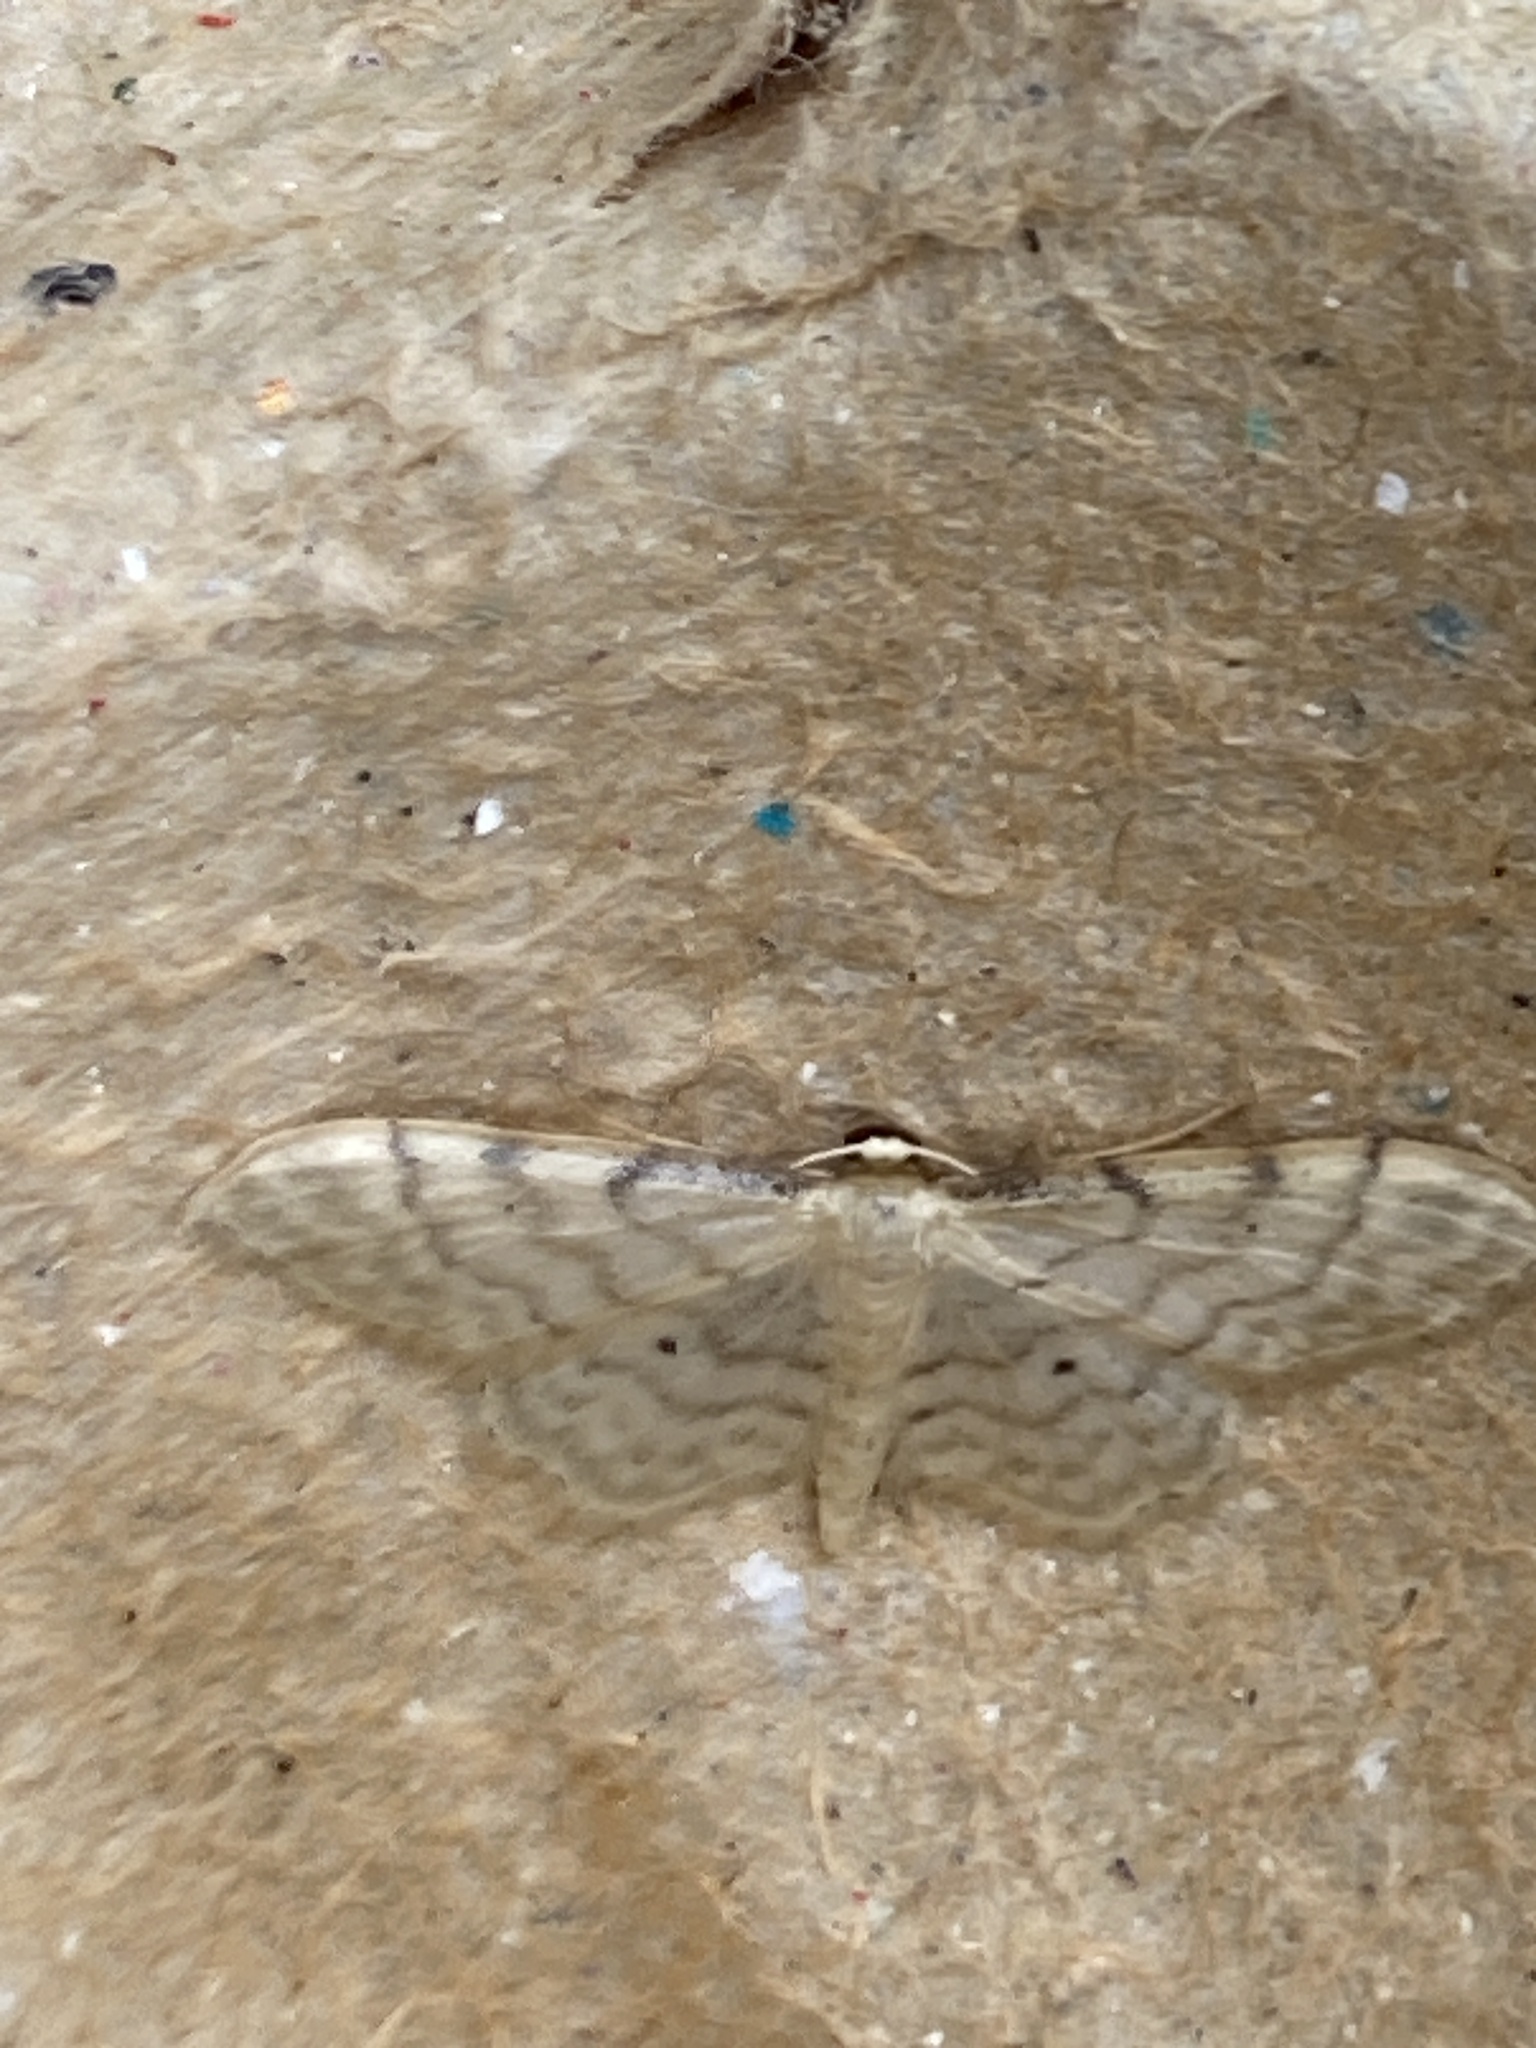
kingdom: Animalia
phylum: Arthropoda
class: Insecta
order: Lepidoptera
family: Geometridae
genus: Idaea
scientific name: Idaea fuscovenosa
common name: Dwarf cream wave
